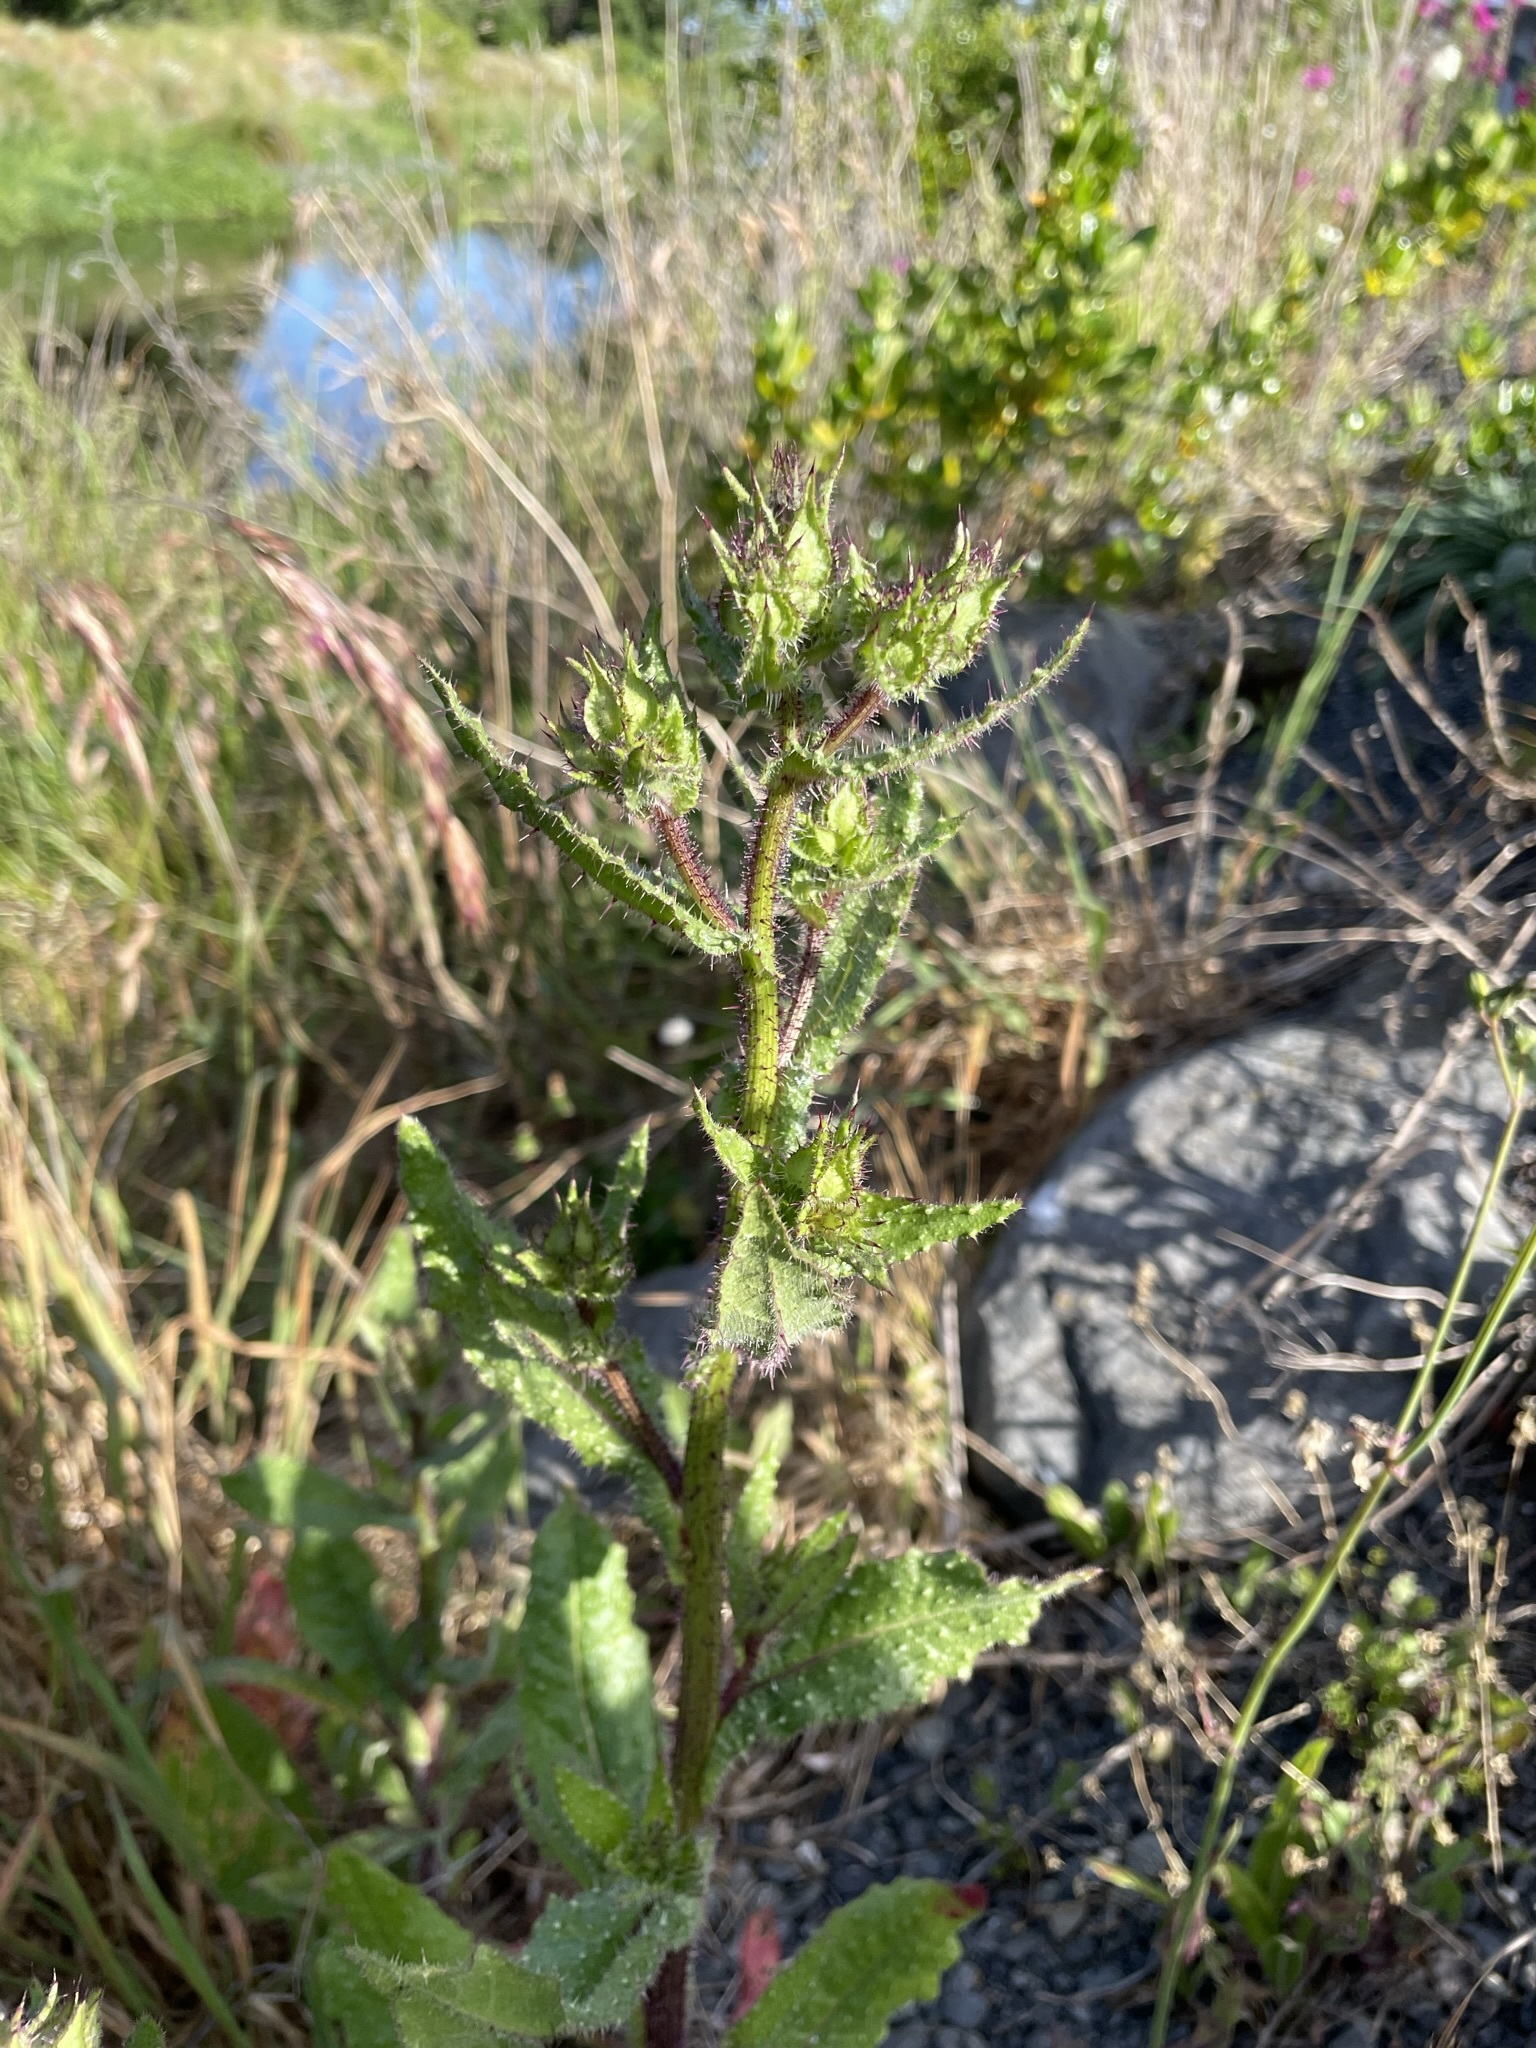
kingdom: Plantae
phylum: Tracheophyta
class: Magnoliopsida
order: Asterales
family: Asteraceae
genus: Helminthotheca
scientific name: Helminthotheca echioides
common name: Ox-tongue
